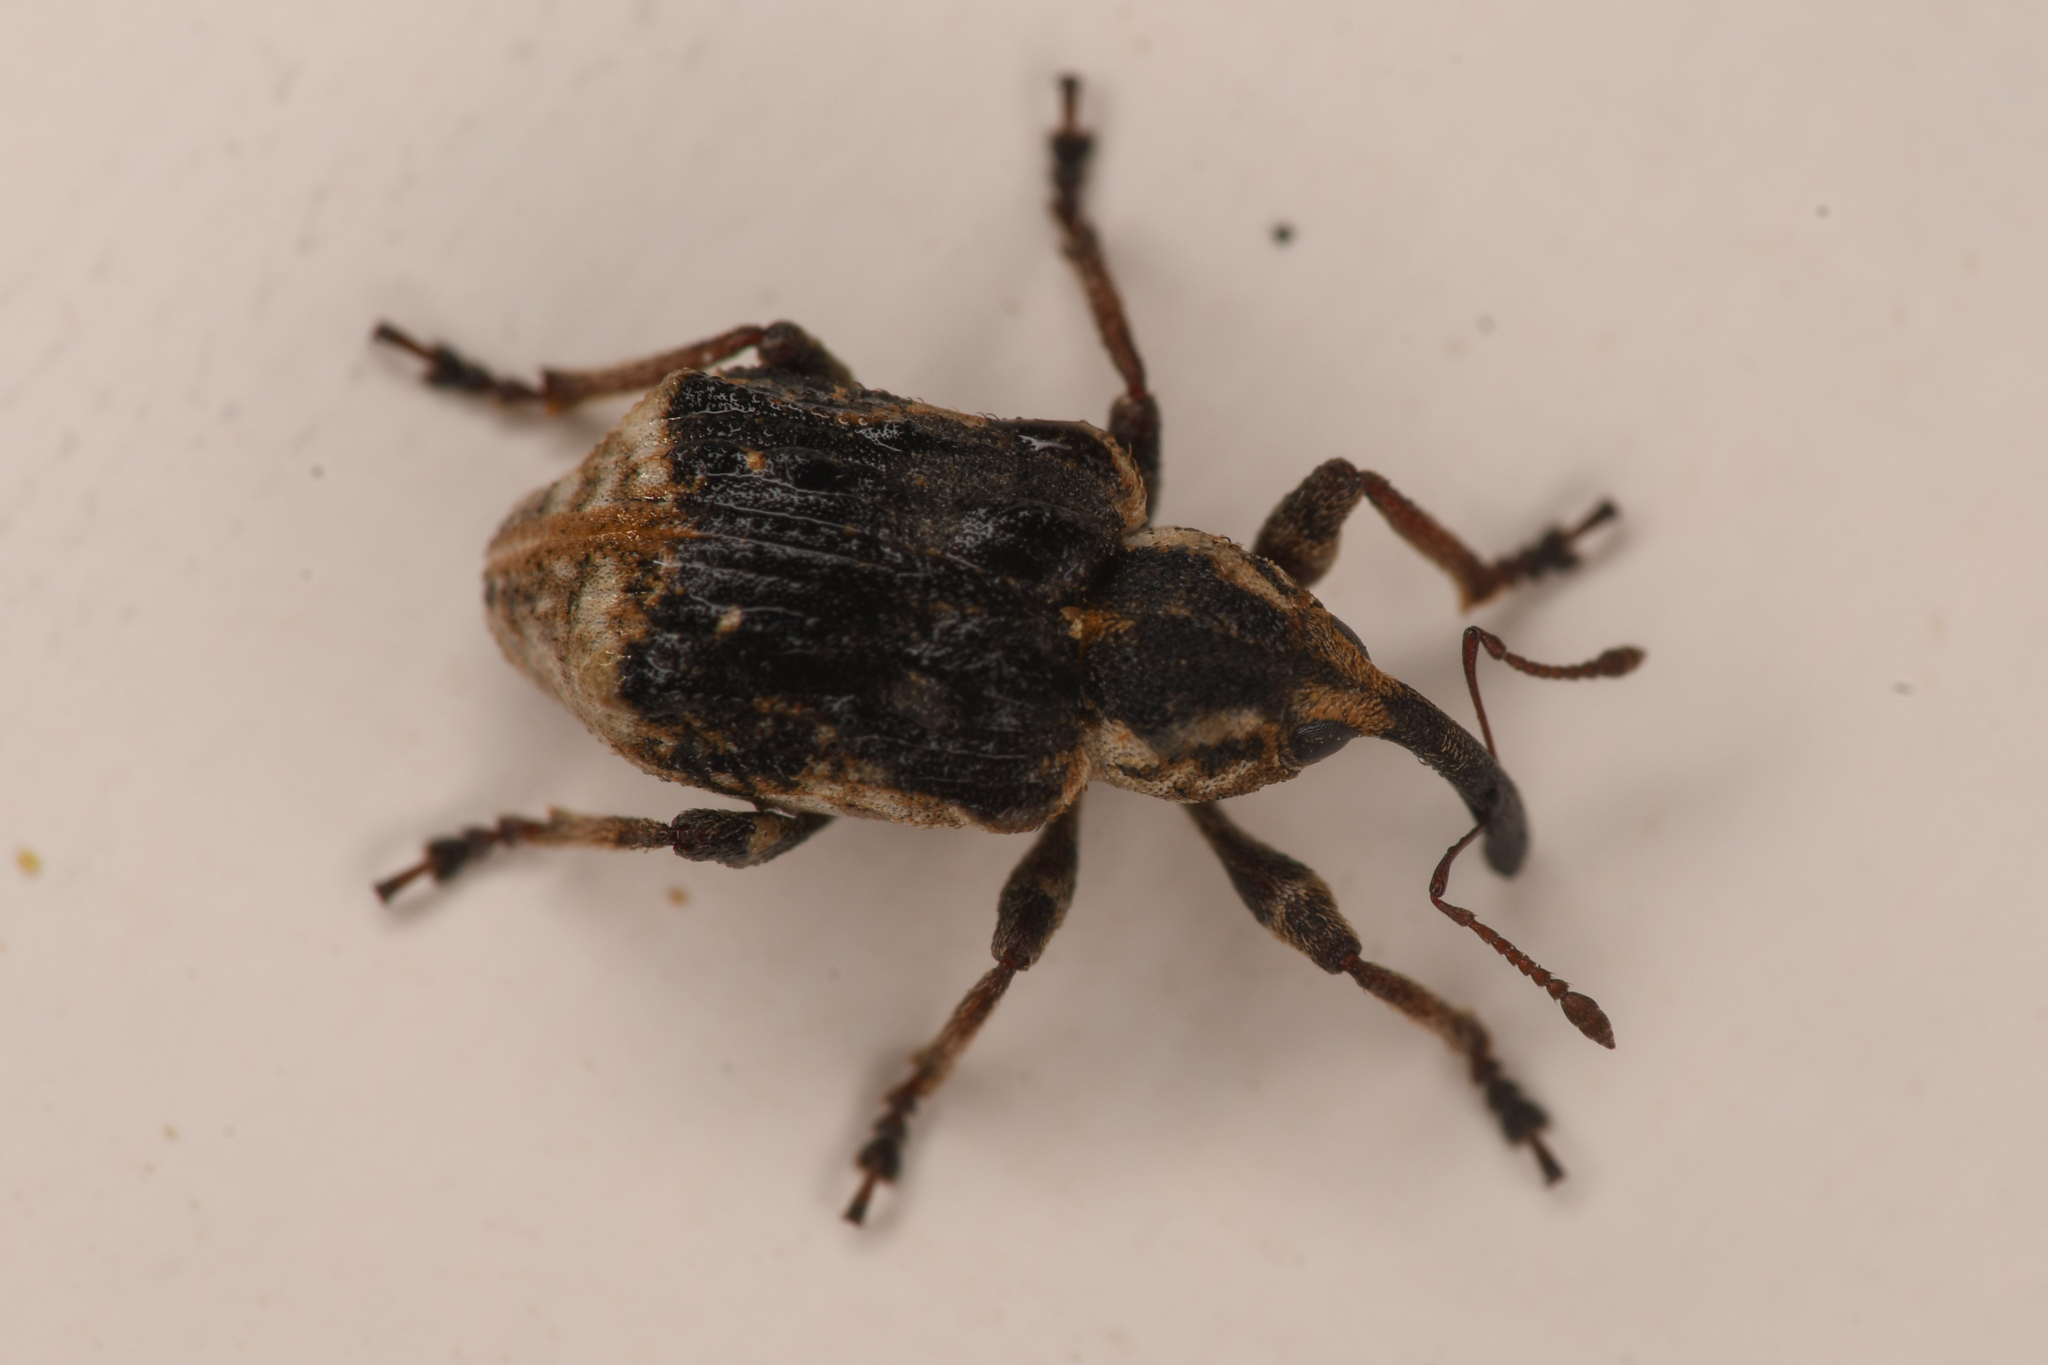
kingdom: Animalia
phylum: Arthropoda
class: Insecta
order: Coleoptera
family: Brachyceridae
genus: Grypus
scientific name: Grypus equiseti
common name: Horsetail weevil
